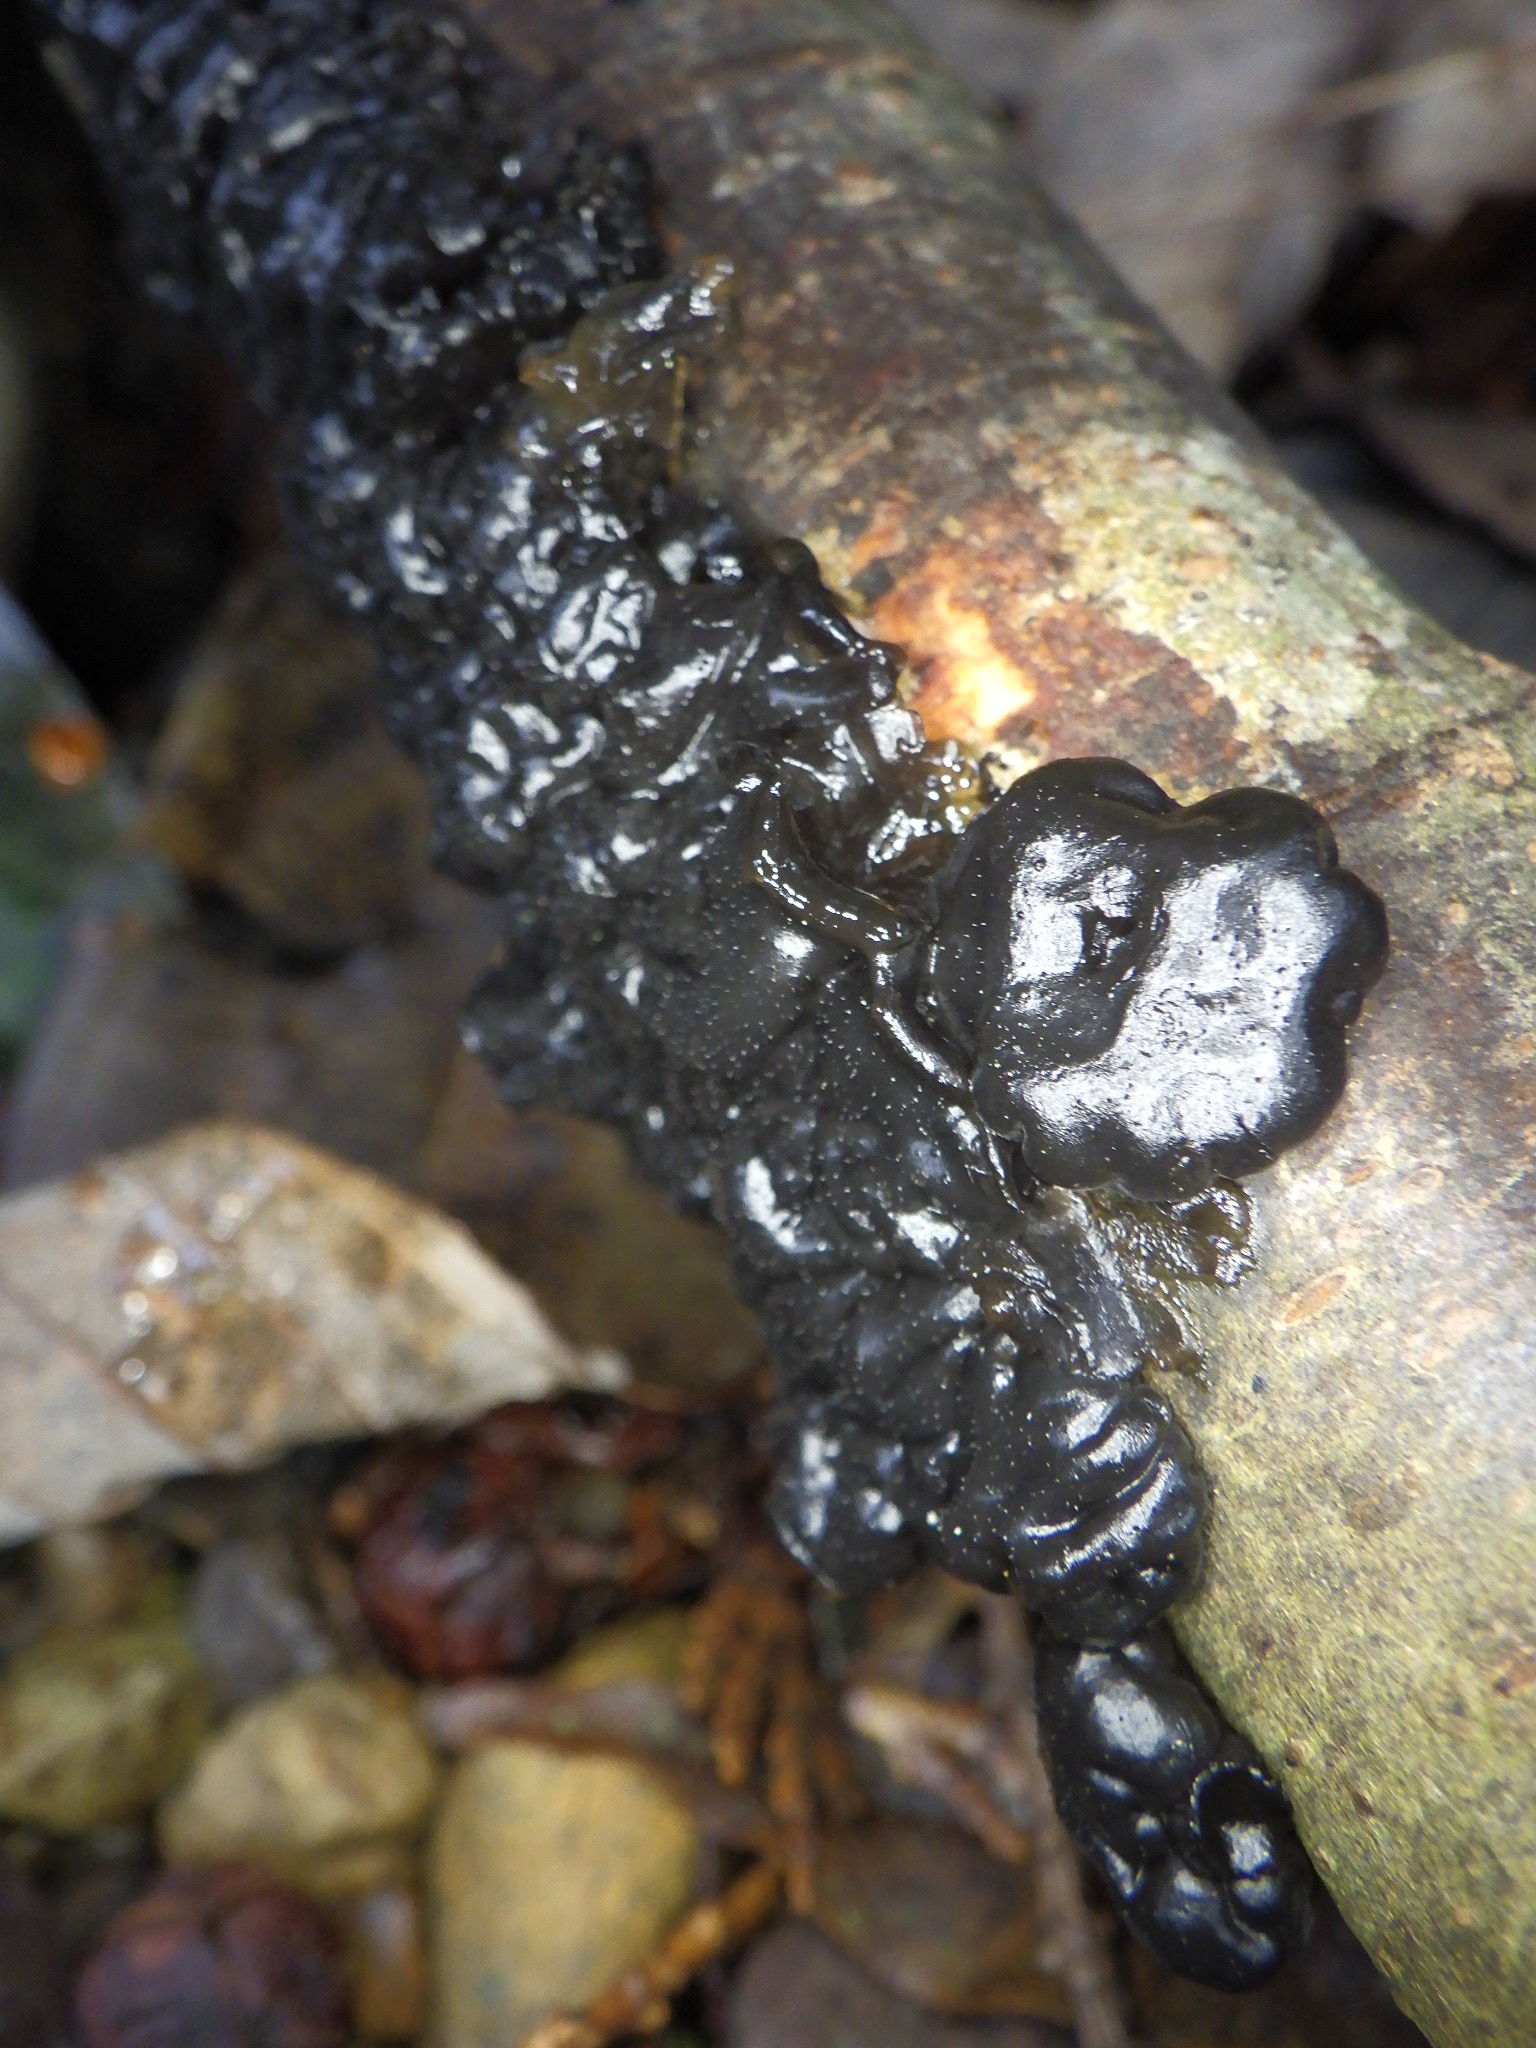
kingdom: Fungi
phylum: Basidiomycota
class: Agaricomycetes
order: Auriculariales
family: Auriculariaceae
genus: Exidia
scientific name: Exidia glandulosa
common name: Witches' butter
